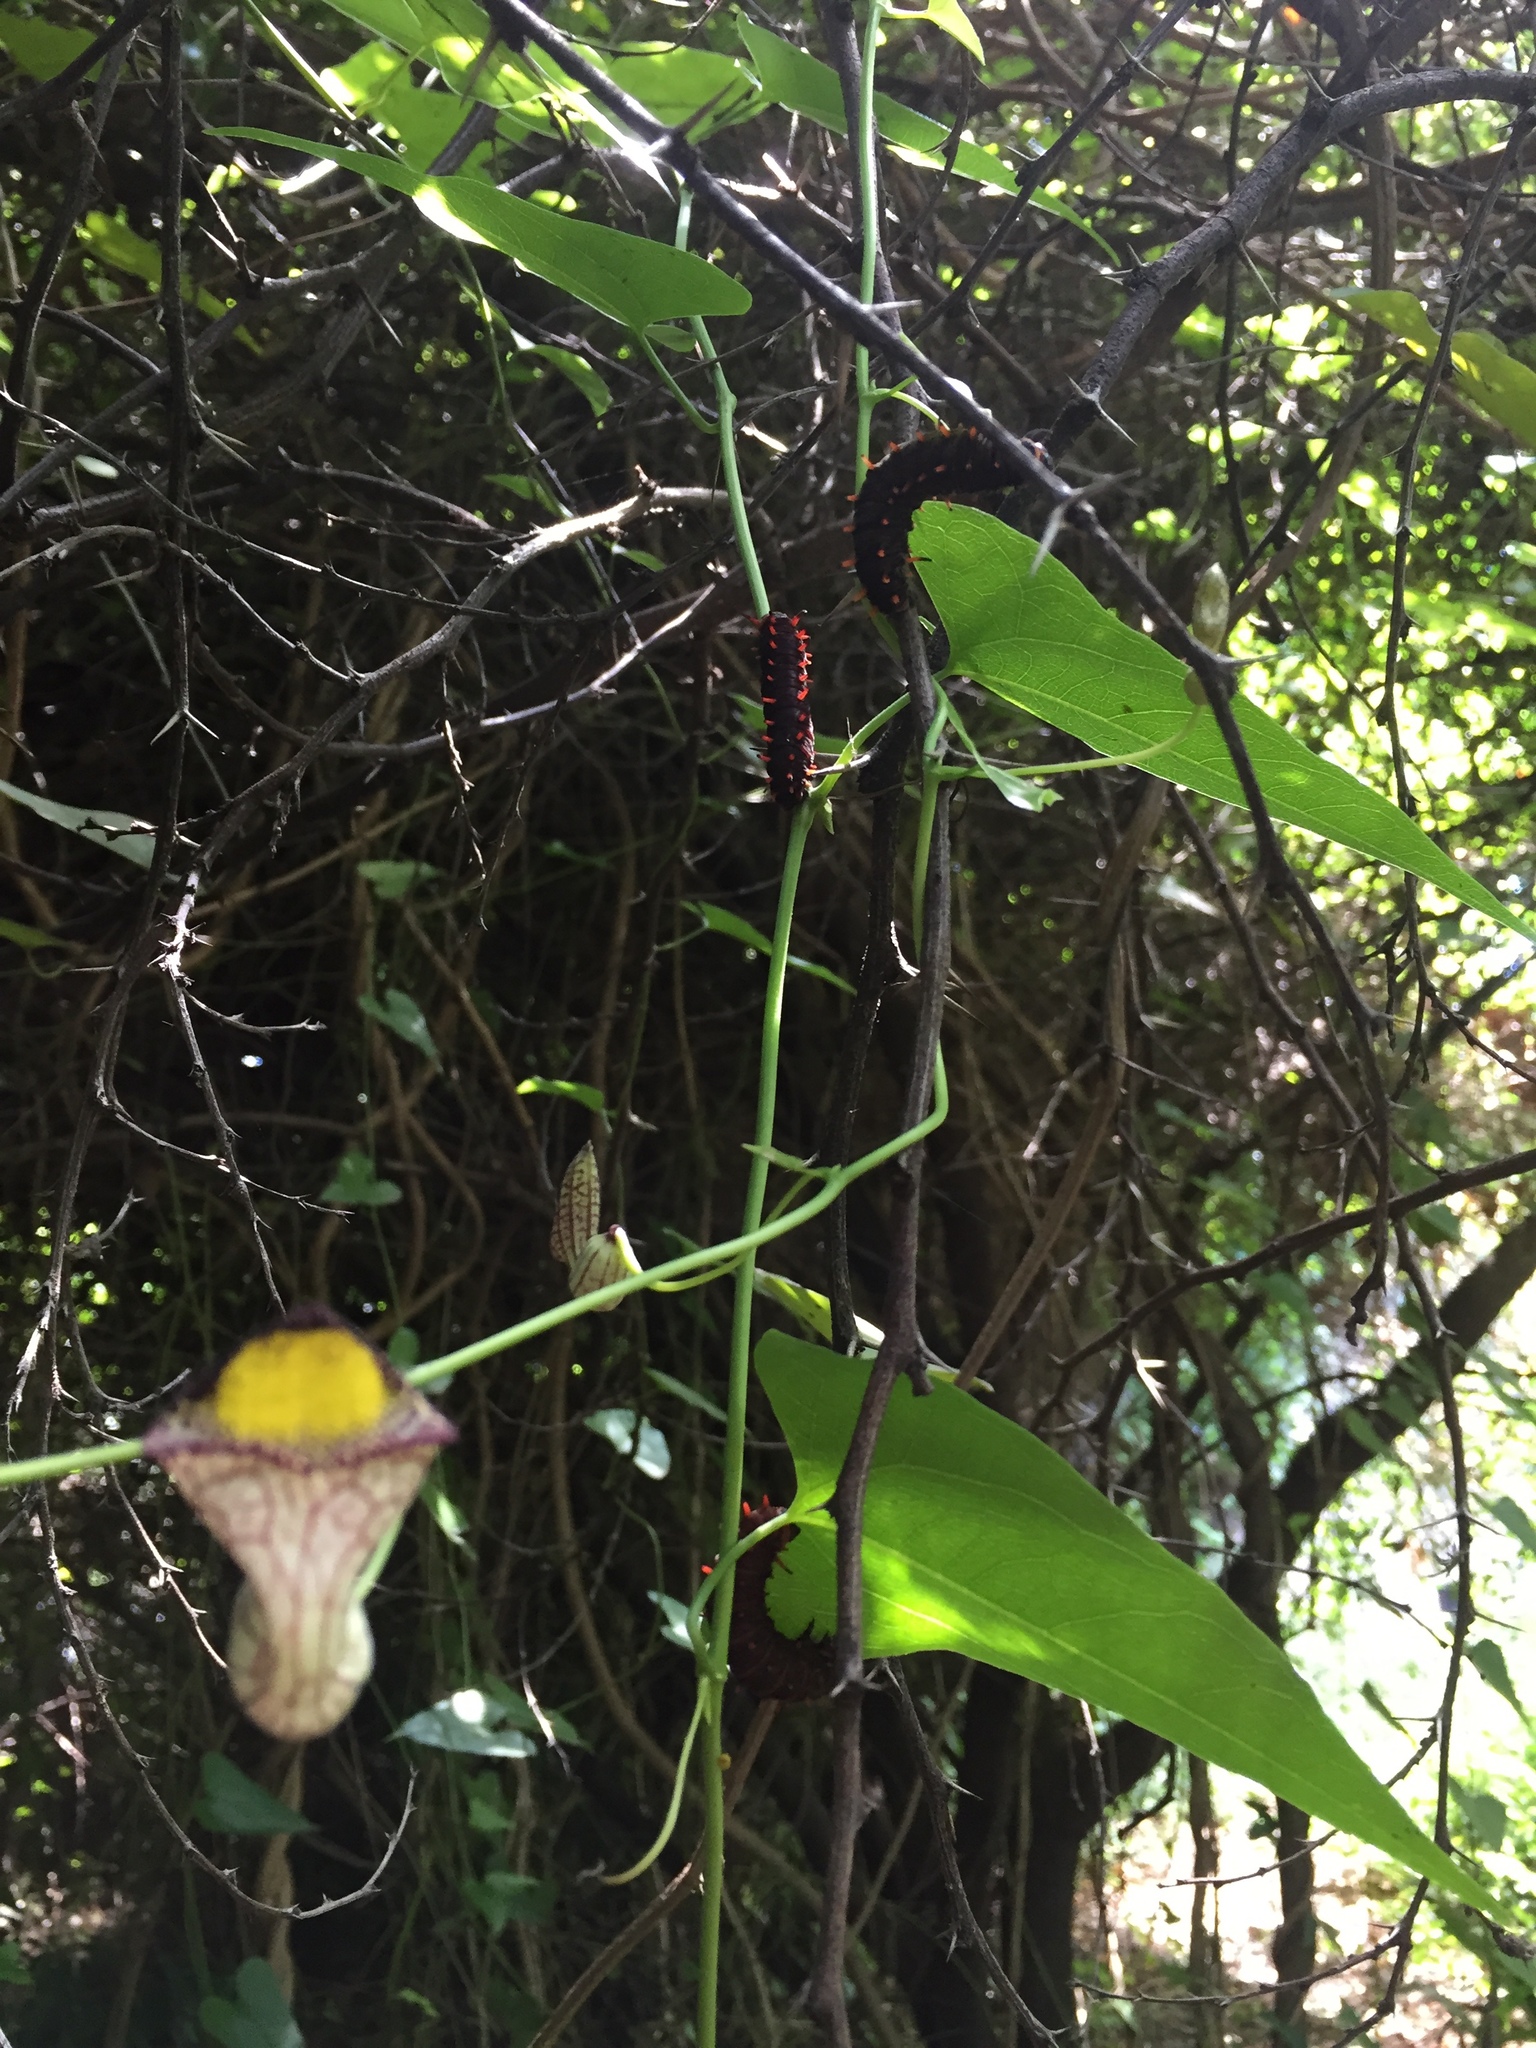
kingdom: Plantae
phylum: Tracheophyta
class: Magnoliopsida
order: Piperales
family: Aristolochiaceae
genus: Aristolochia
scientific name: Aristolochia triangularis
